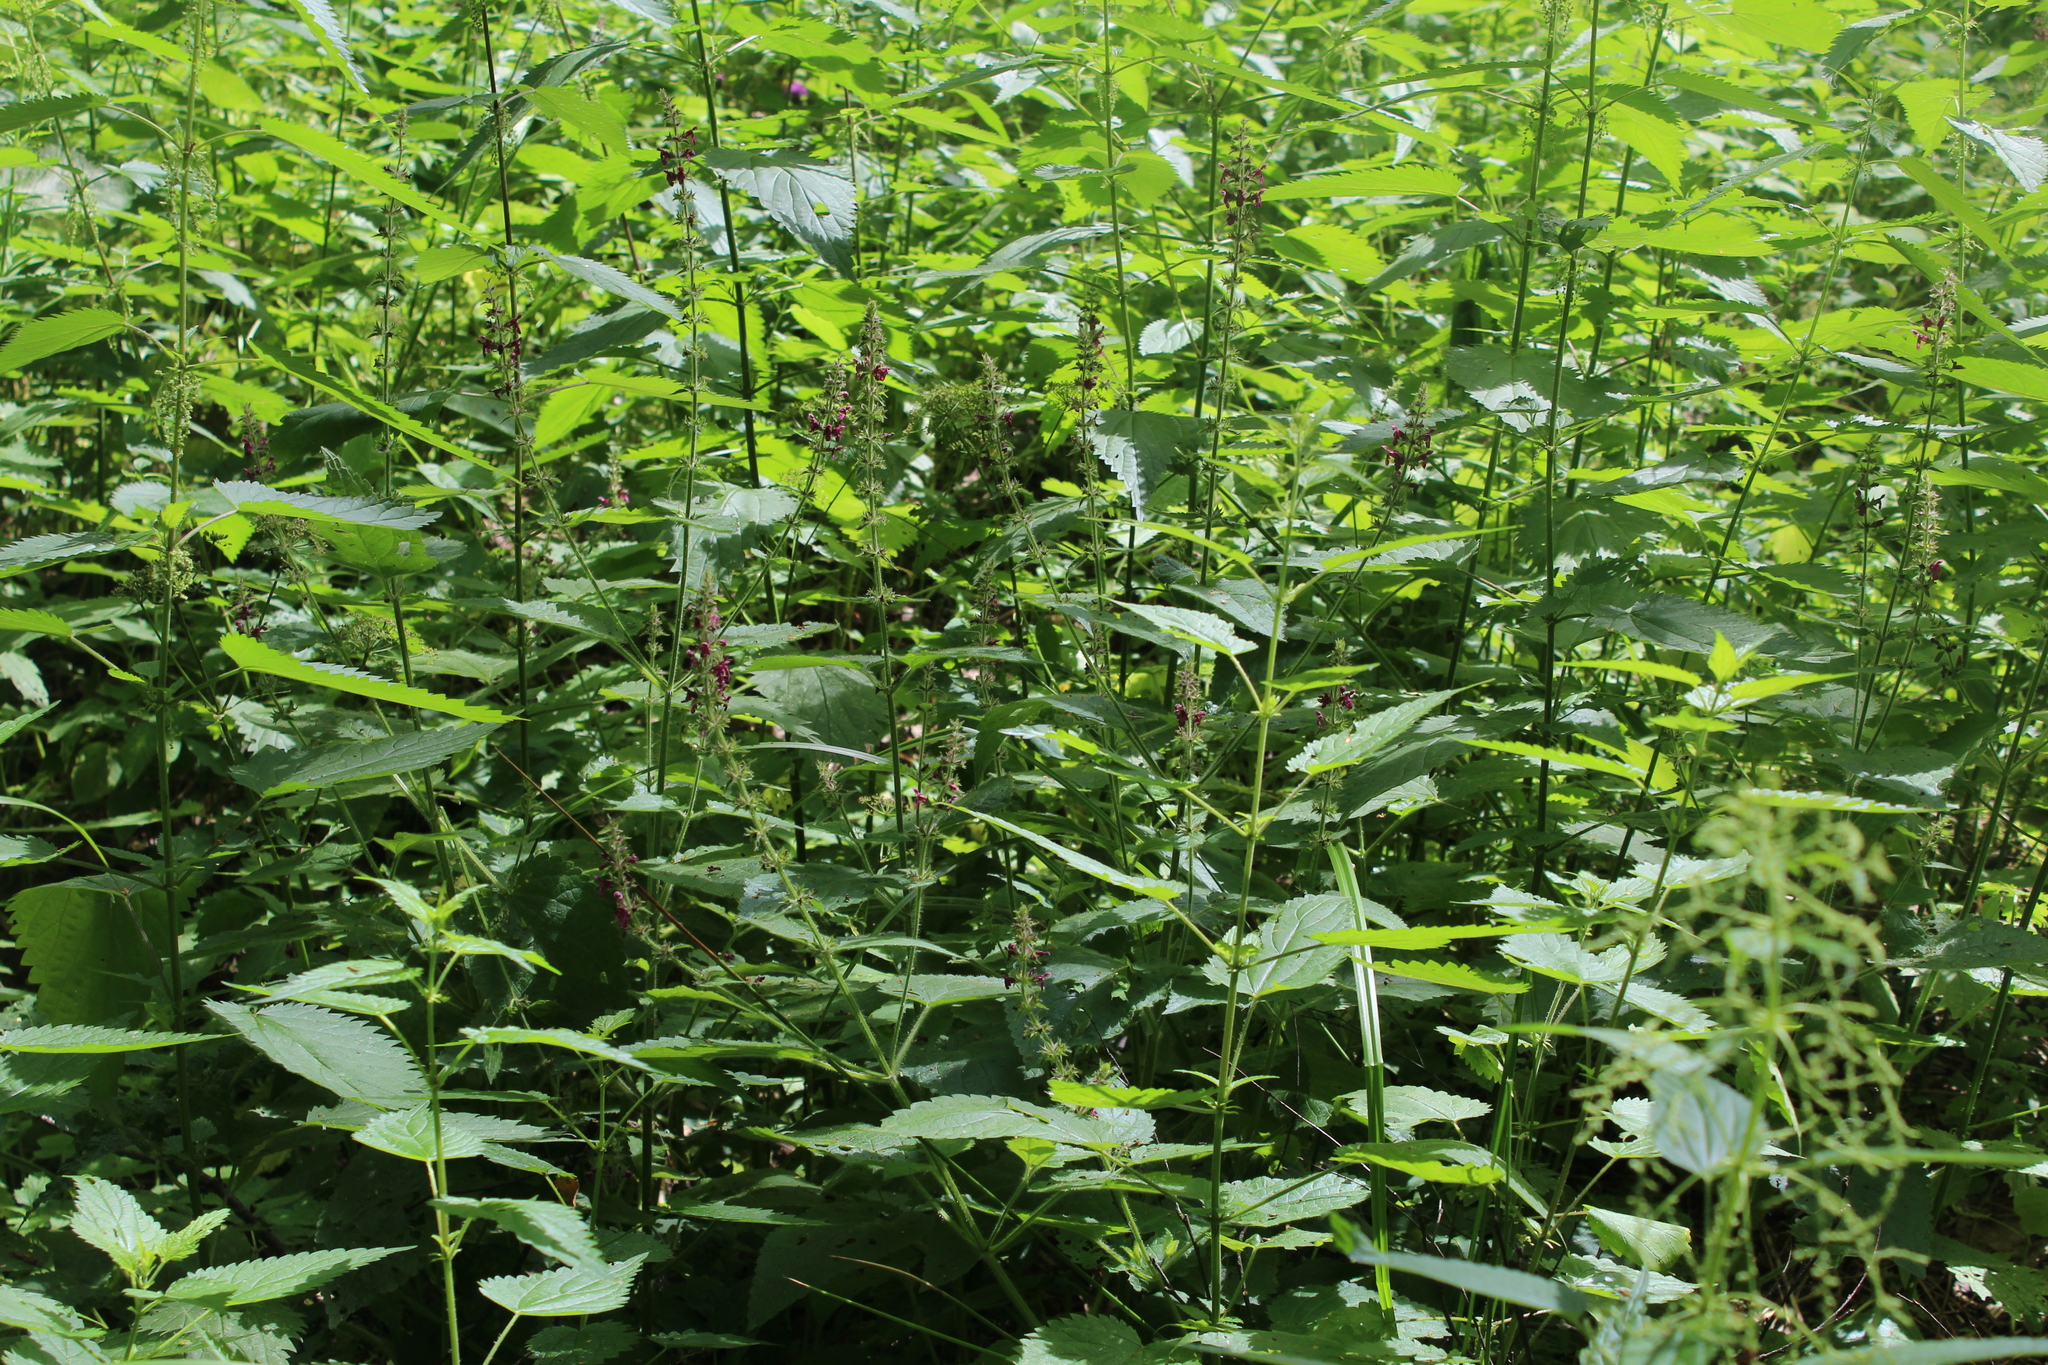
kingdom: Plantae
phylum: Tracheophyta
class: Magnoliopsida
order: Lamiales
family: Lamiaceae
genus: Stachys
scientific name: Stachys sylvatica
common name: Hedge woundwort
